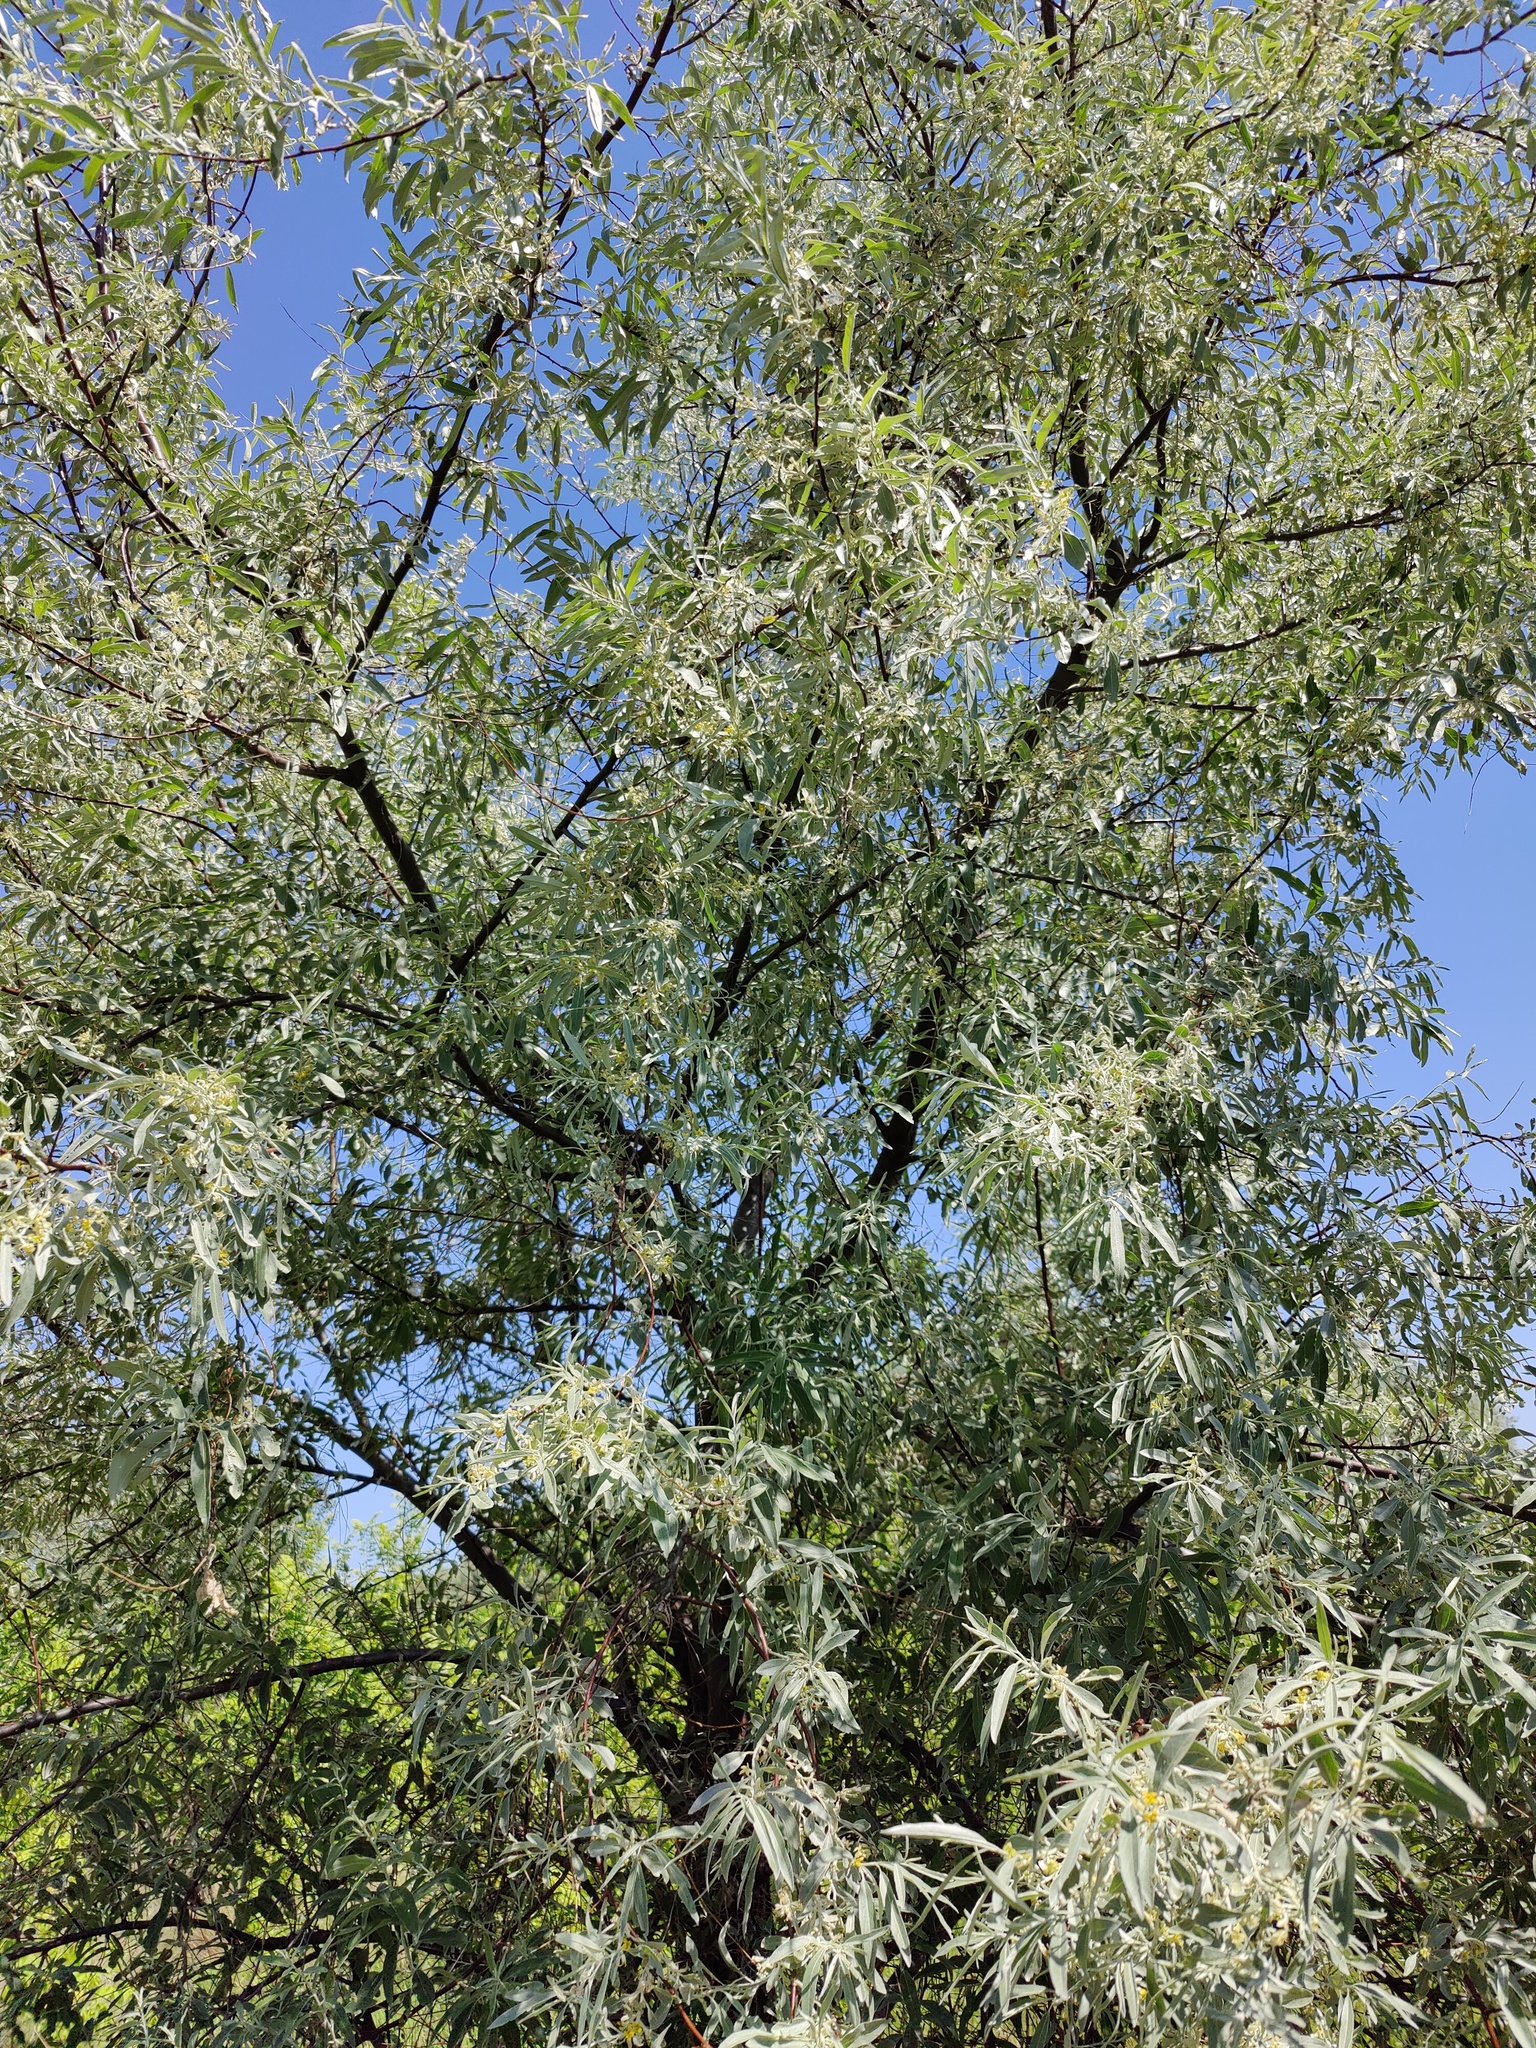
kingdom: Plantae
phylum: Tracheophyta
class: Magnoliopsida
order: Rosales
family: Elaeagnaceae
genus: Elaeagnus
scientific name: Elaeagnus angustifolia
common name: Russian olive
